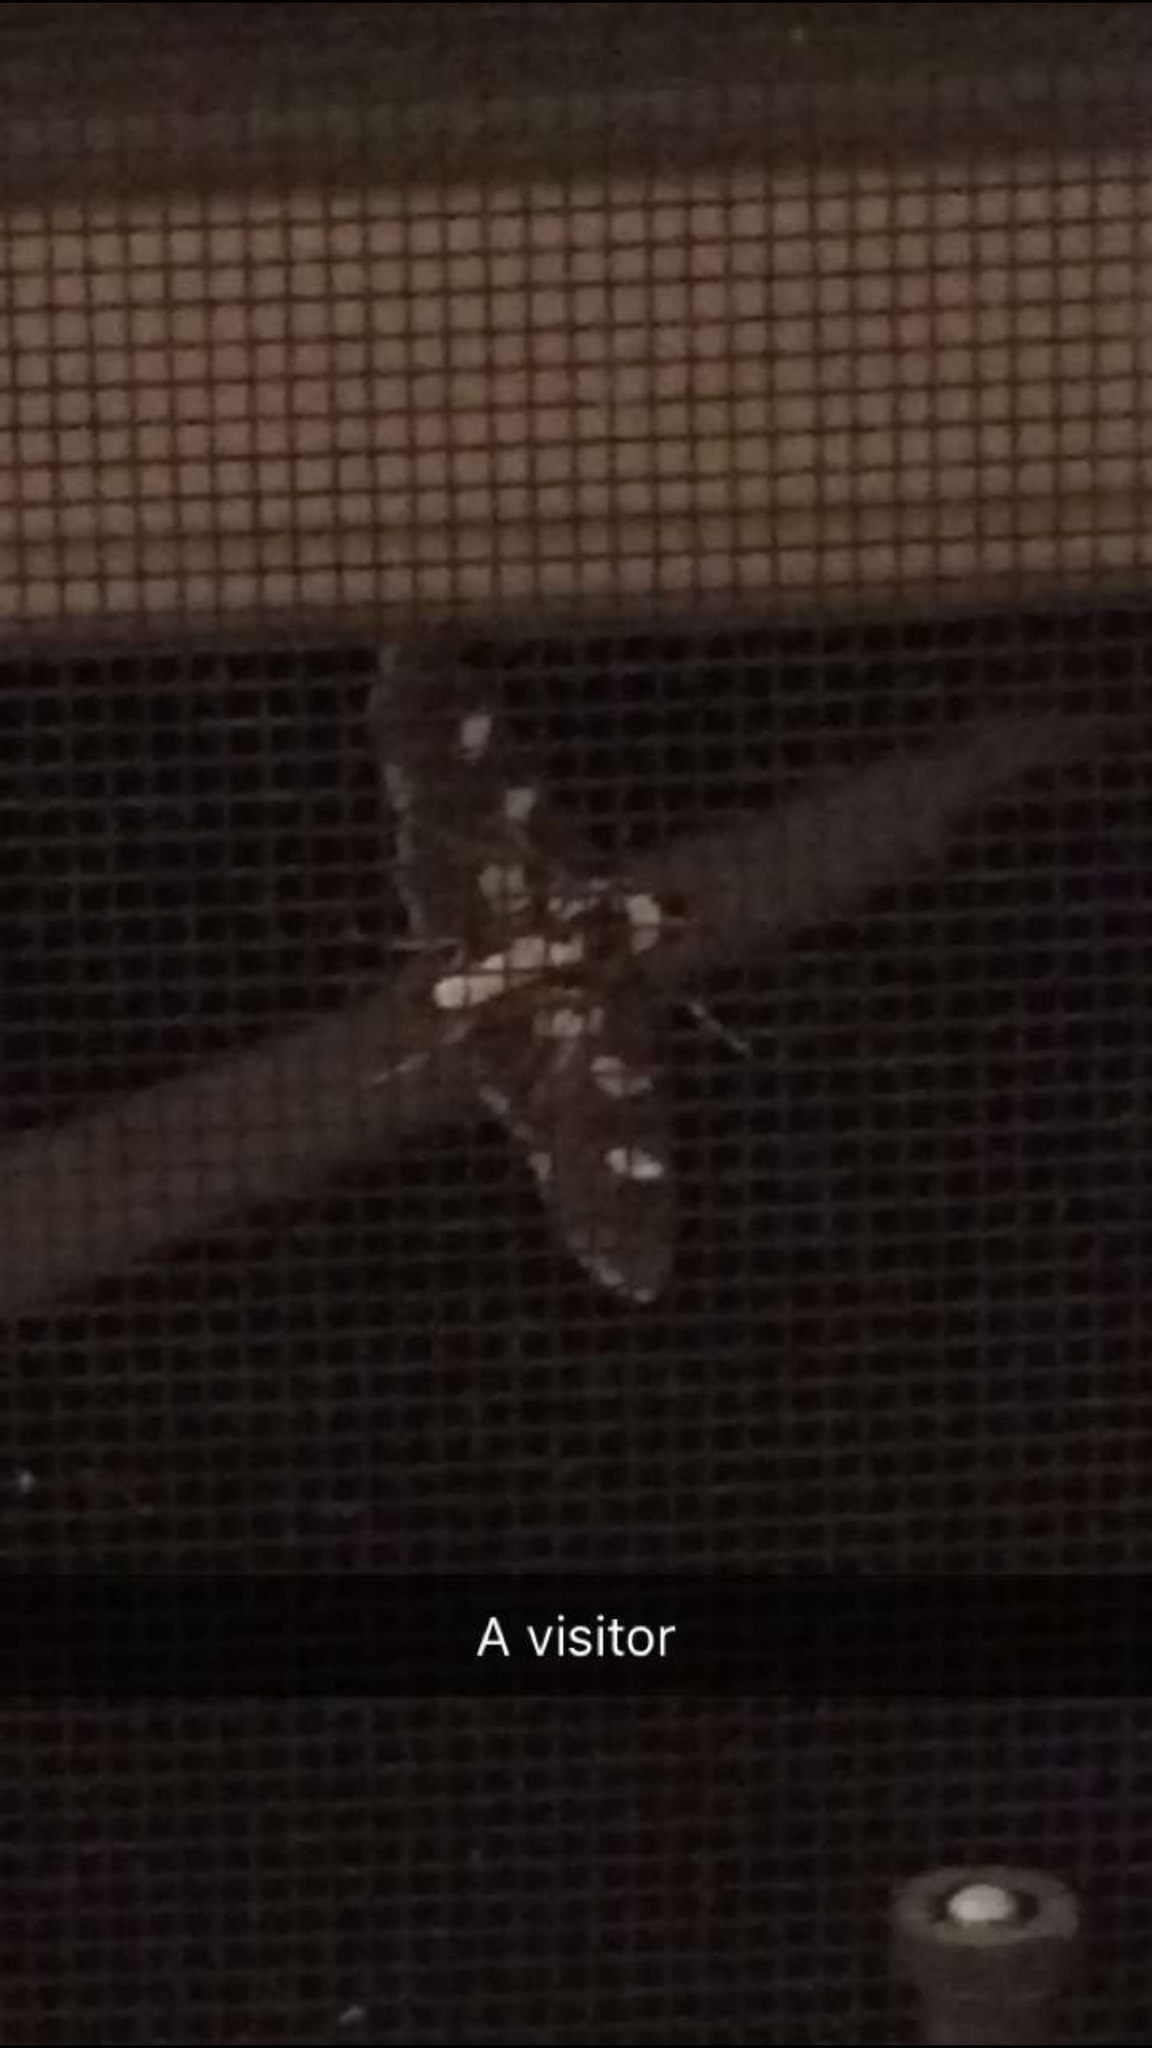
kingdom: Animalia
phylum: Arthropoda
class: Insecta
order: Lepidoptera
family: Crambidae
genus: Desmia
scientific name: Desmia funeralis
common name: Grape leaf folder moth
